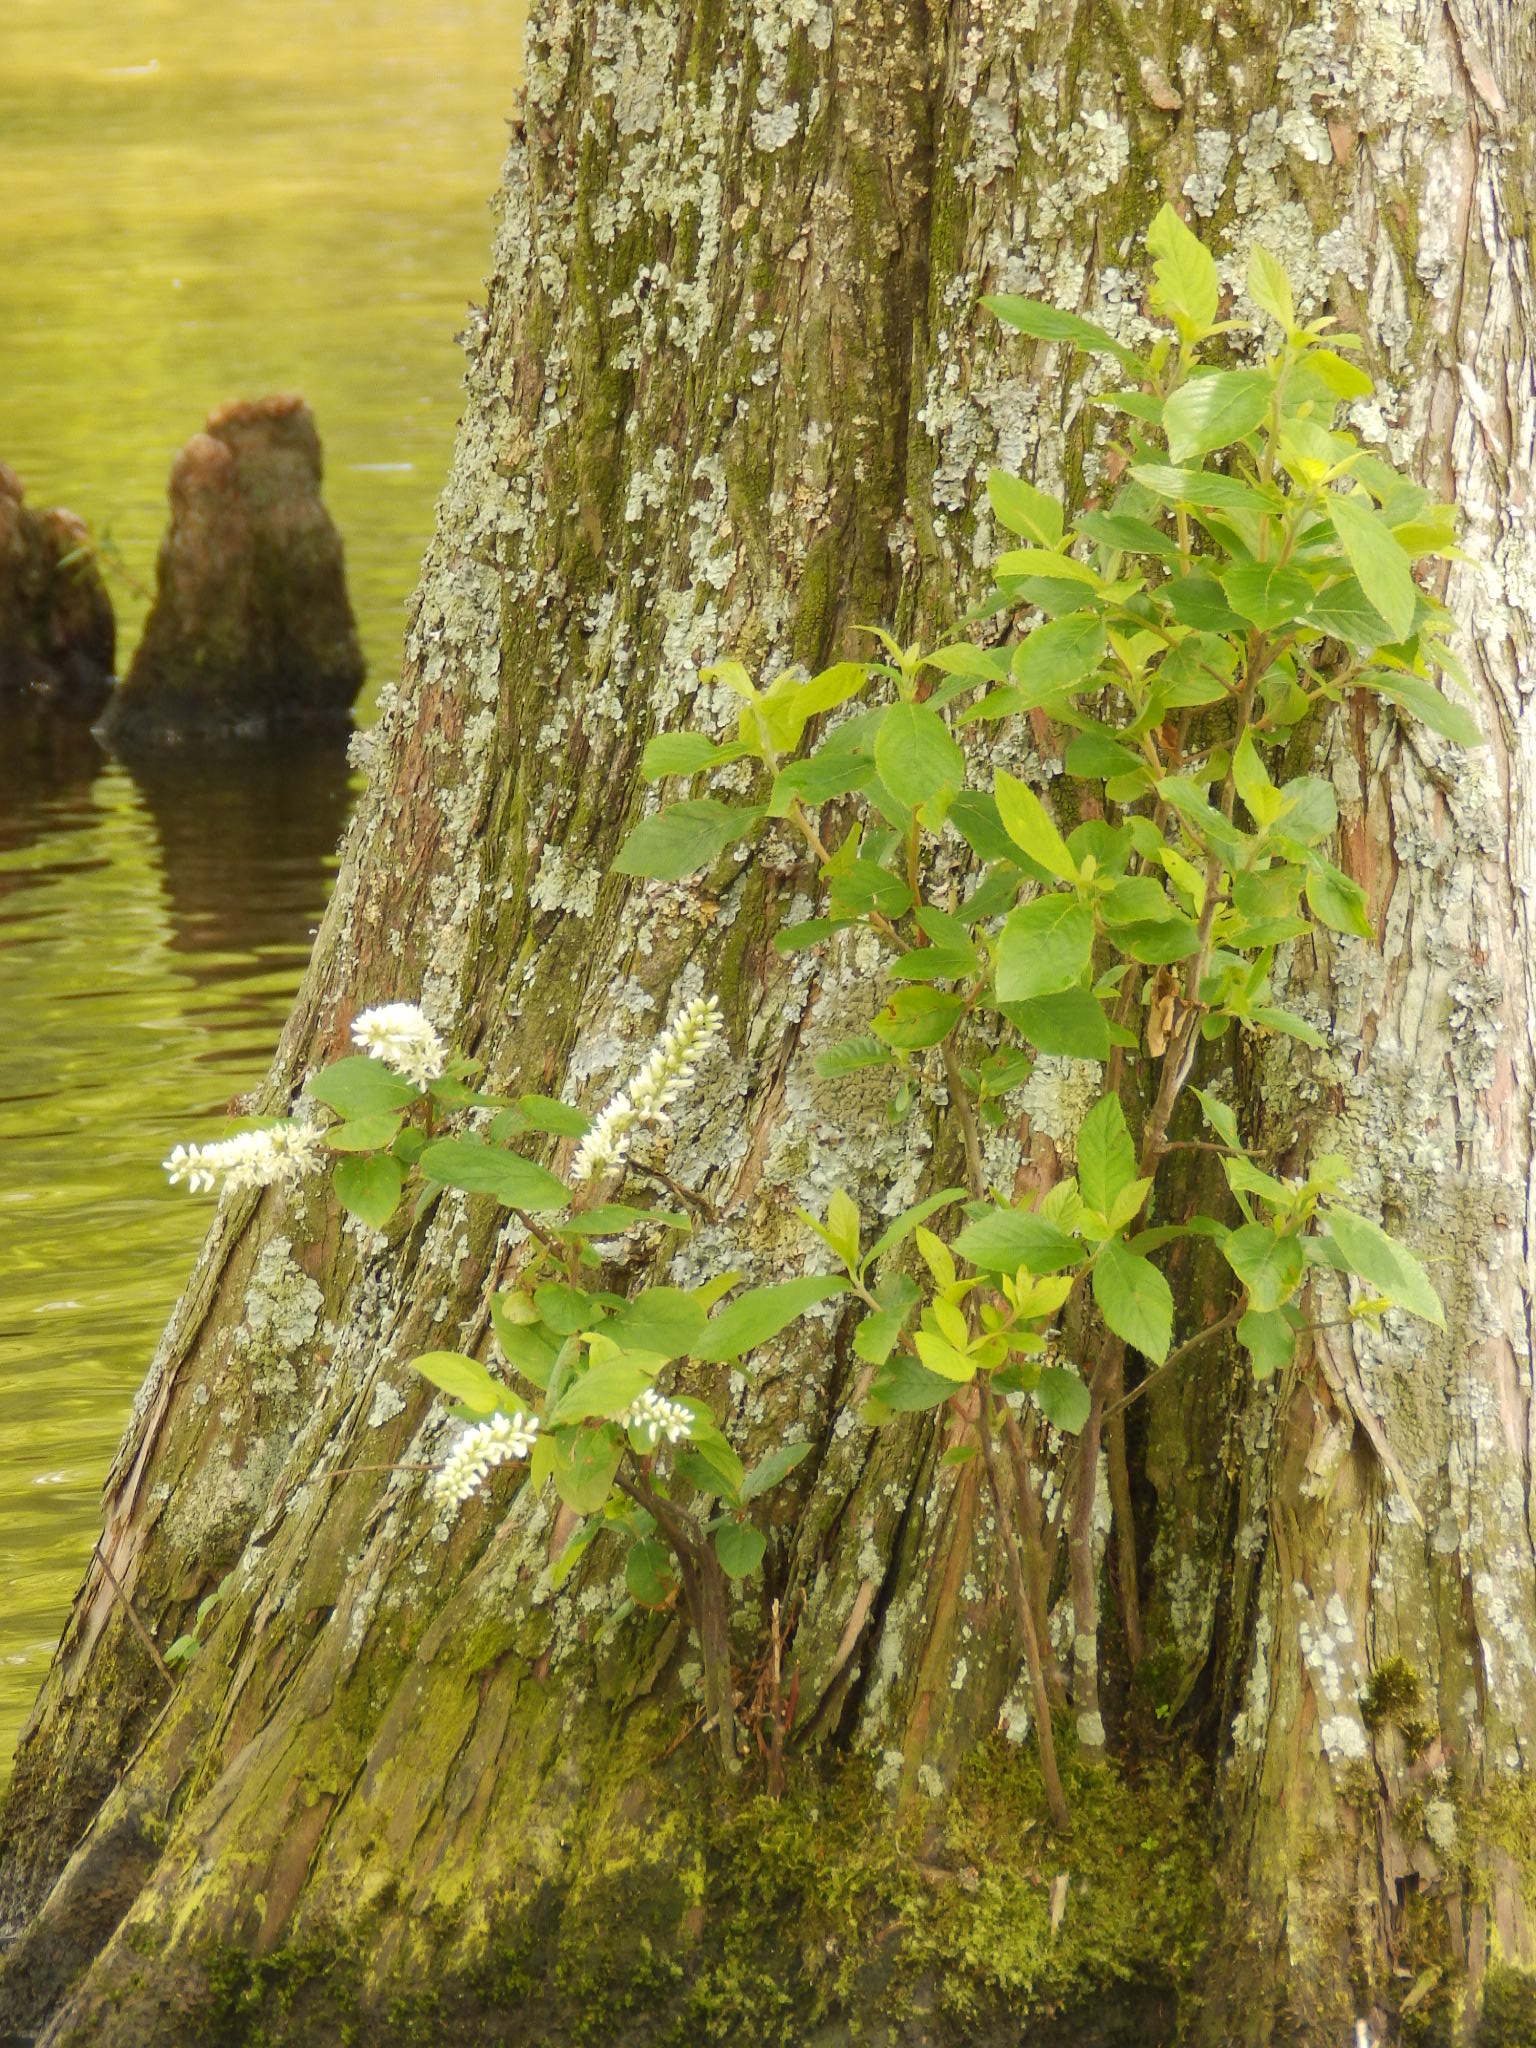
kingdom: Plantae
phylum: Tracheophyta
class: Magnoliopsida
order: Saxifragales
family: Iteaceae
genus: Itea
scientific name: Itea virginica
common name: Sweetspire
